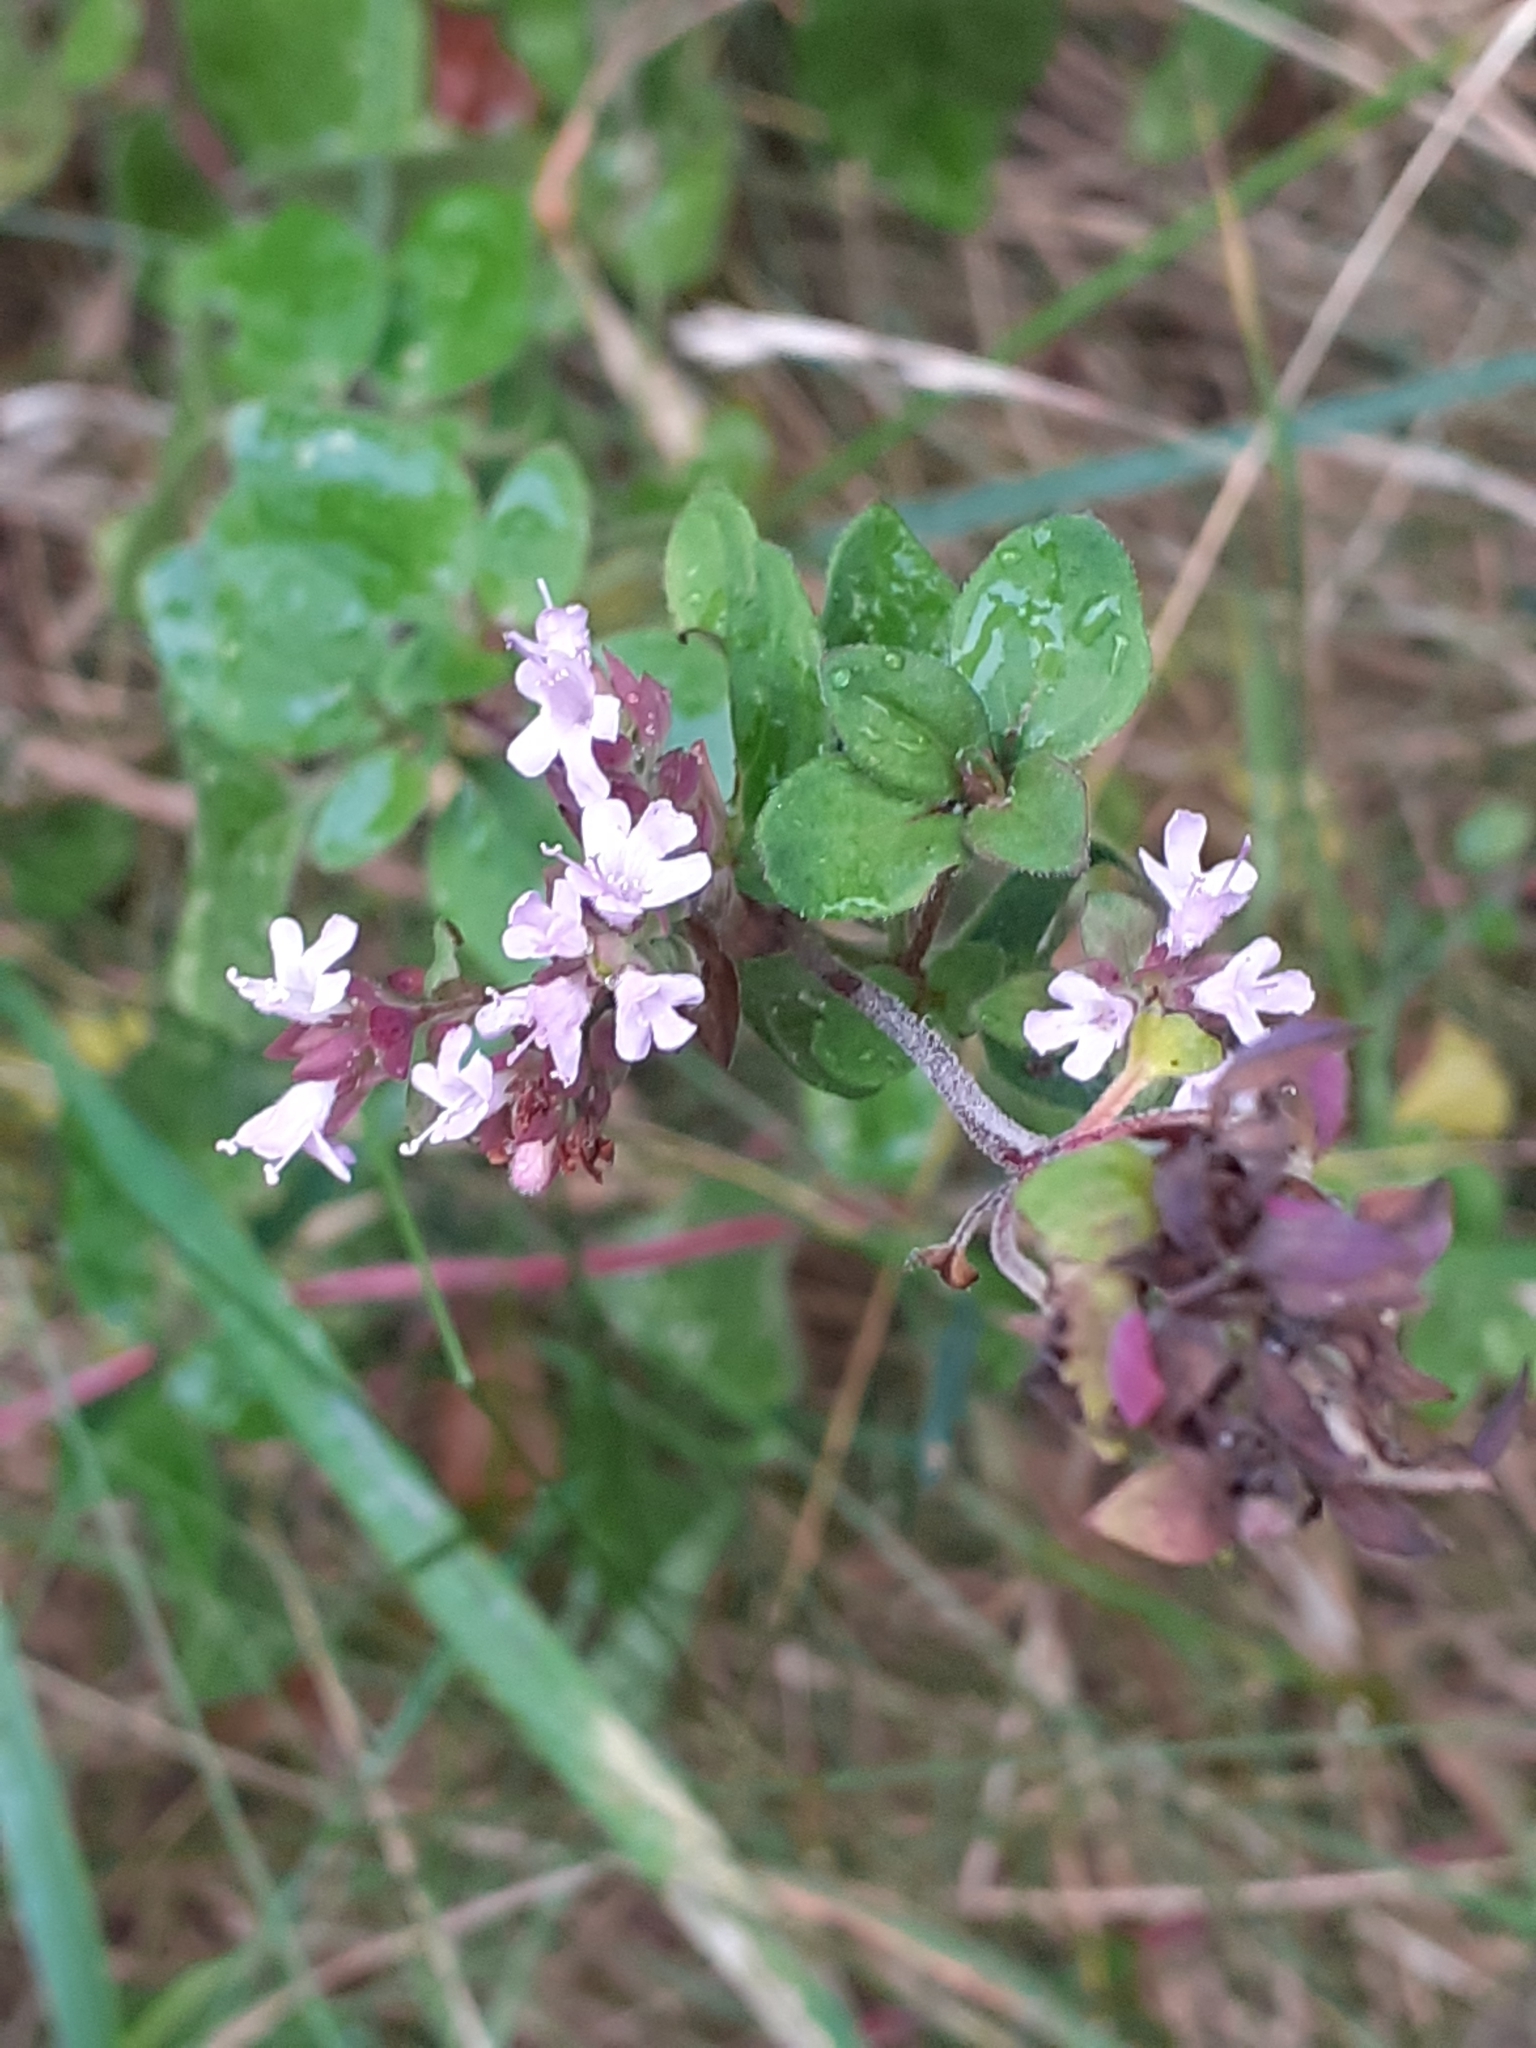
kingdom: Plantae
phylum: Tracheophyta
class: Magnoliopsida
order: Lamiales
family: Lamiaceae
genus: Origanum
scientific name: Origanum vulgare
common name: Wild marjoram
